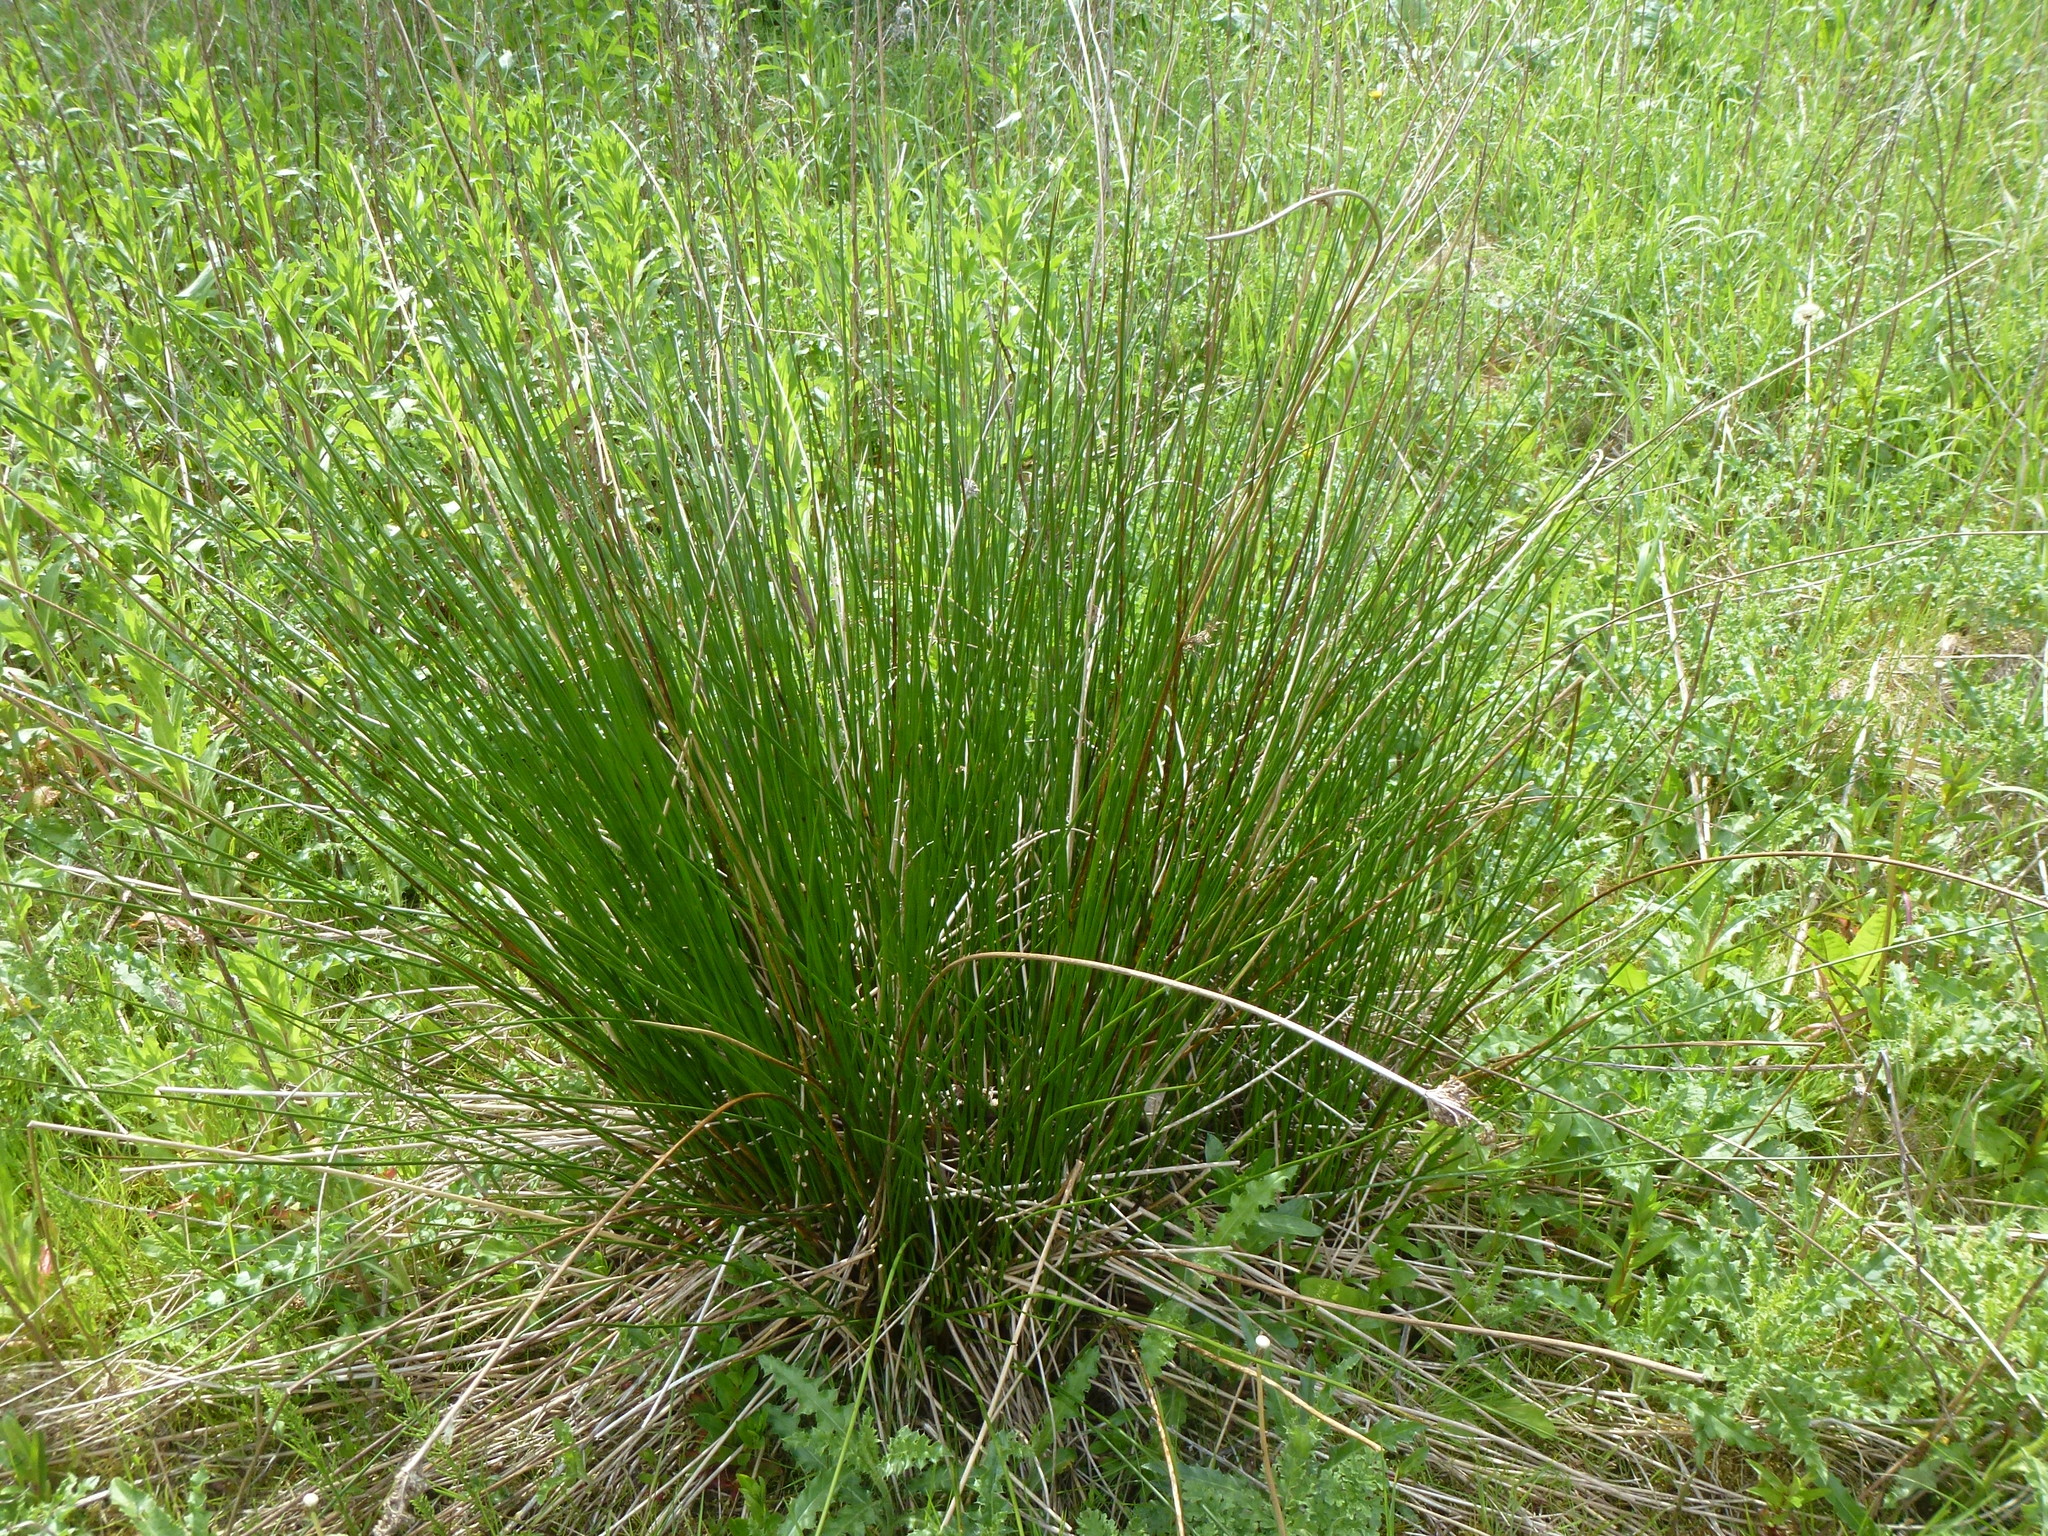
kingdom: Plantae
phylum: Tracheophyta
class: Liliopsida
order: Poales
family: Juncaceae
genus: Juncus
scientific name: Juncus effusus
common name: Soft rush
